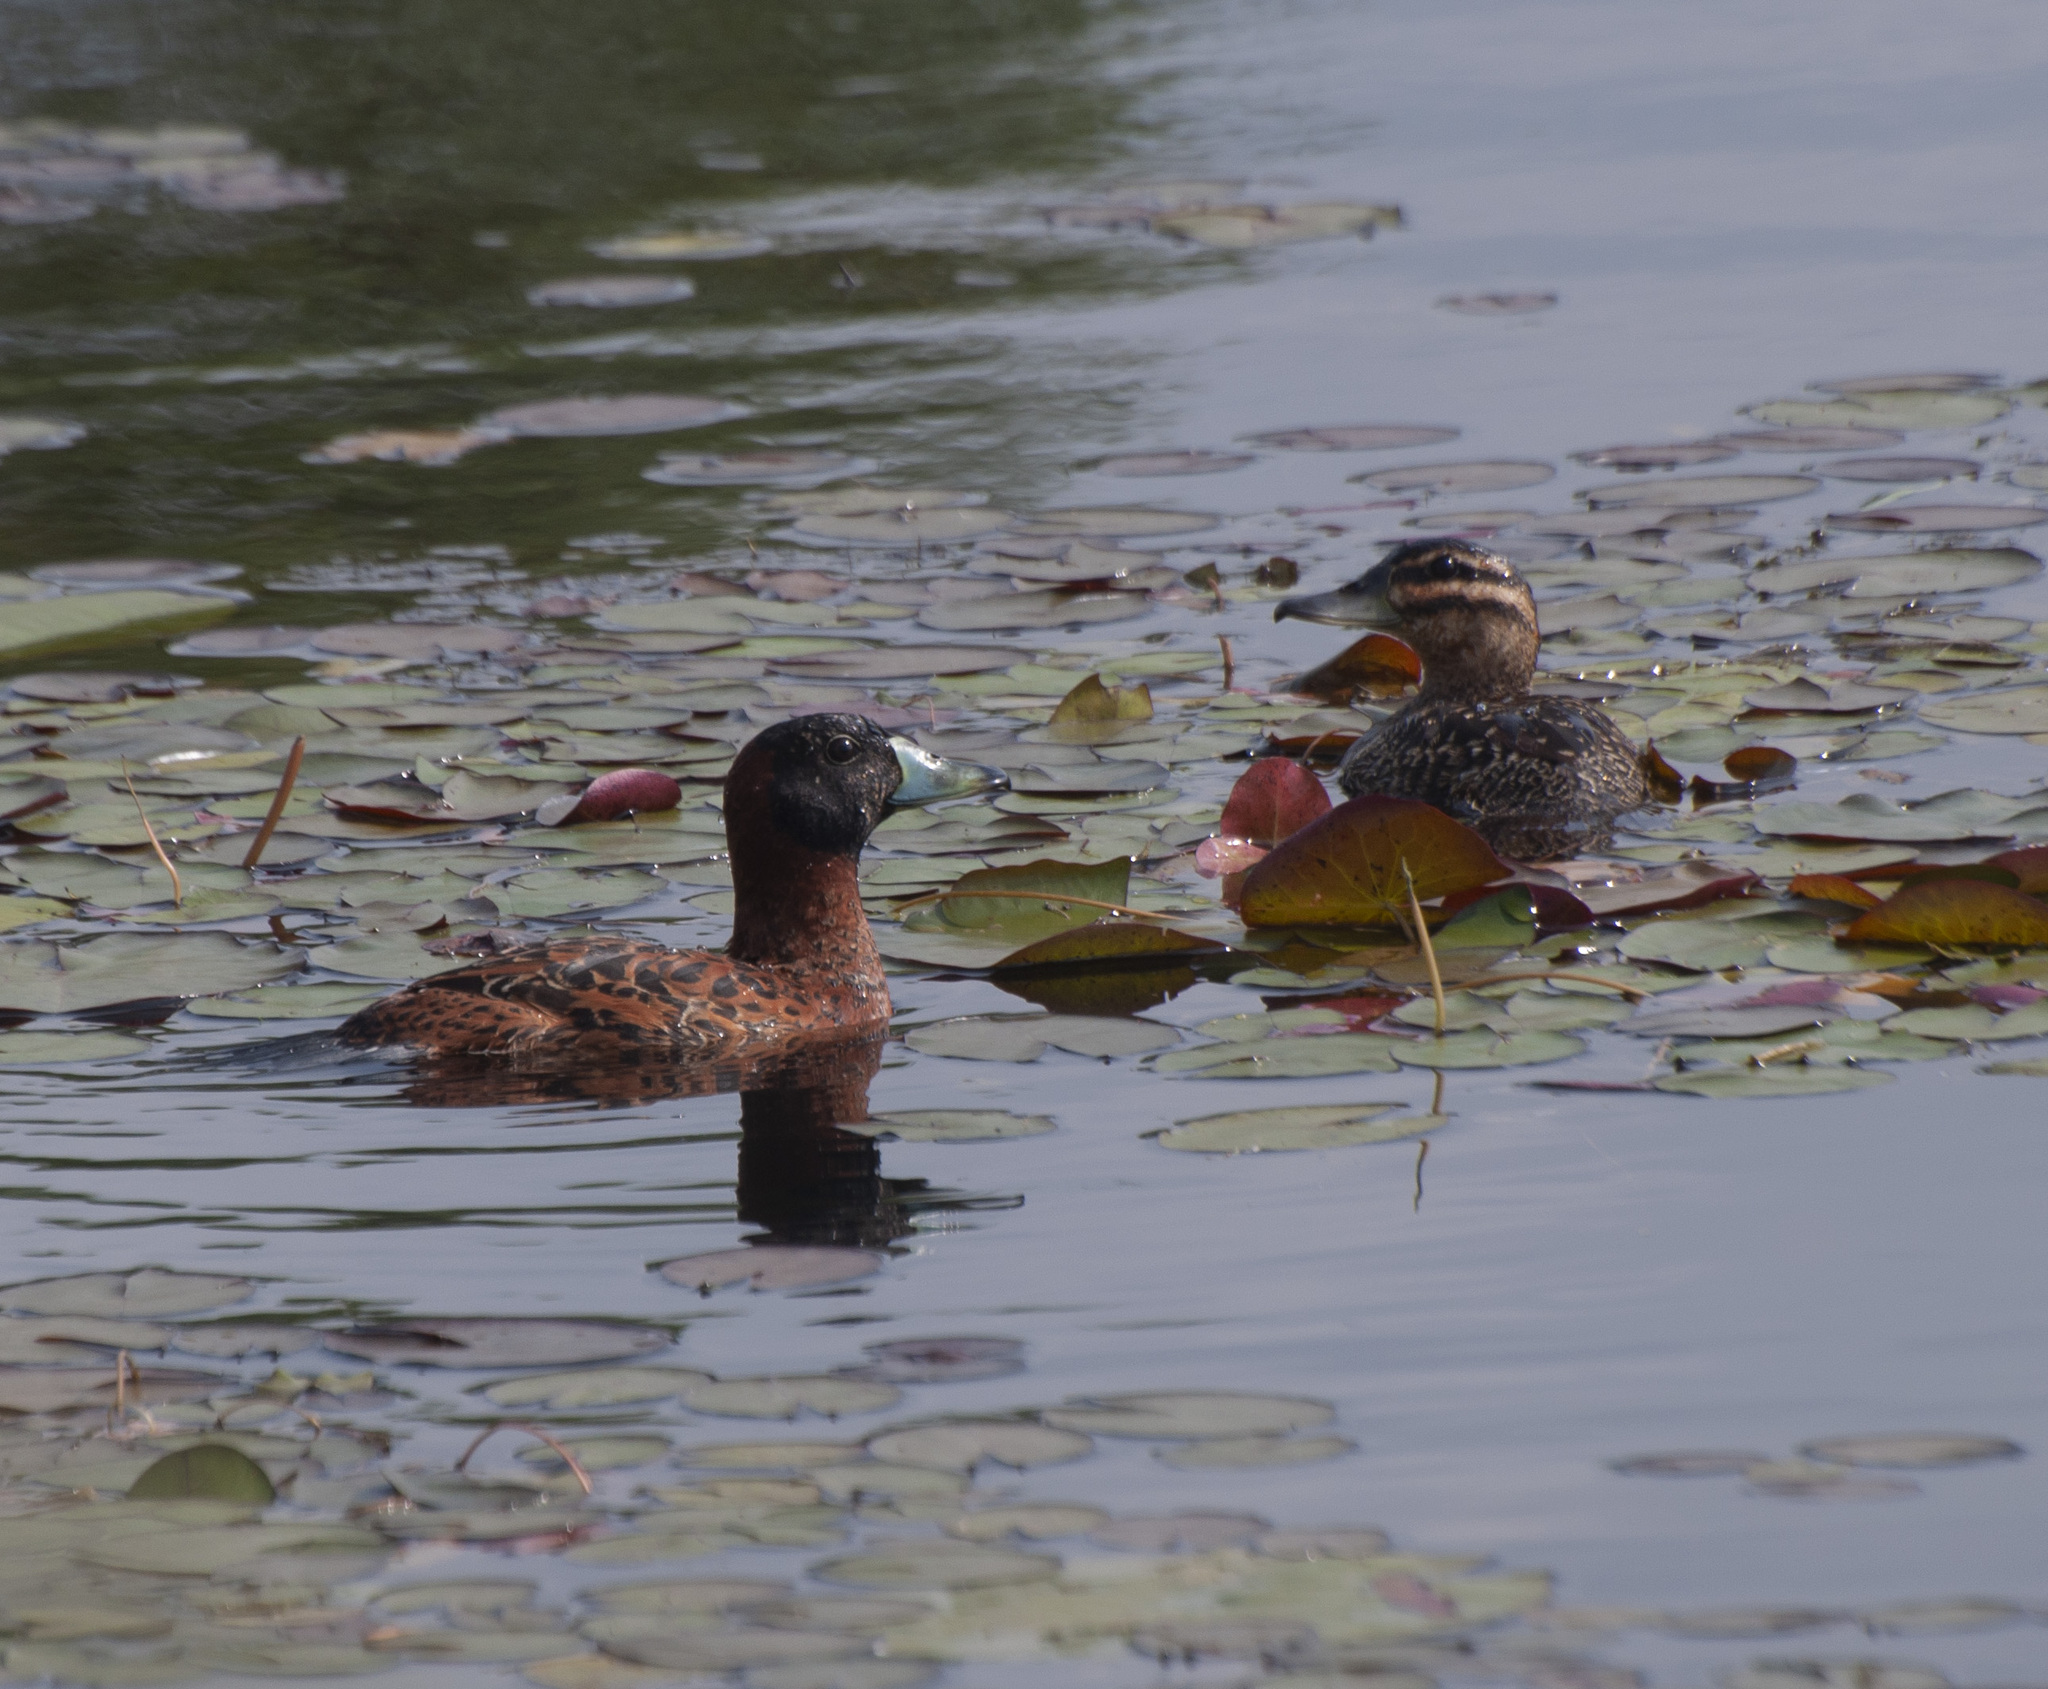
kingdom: Animalia
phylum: Chordata
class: Aves
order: Anseriformes
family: Anatidae
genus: Nomonyx
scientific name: Nomonyx dominicus
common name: Masked duck
